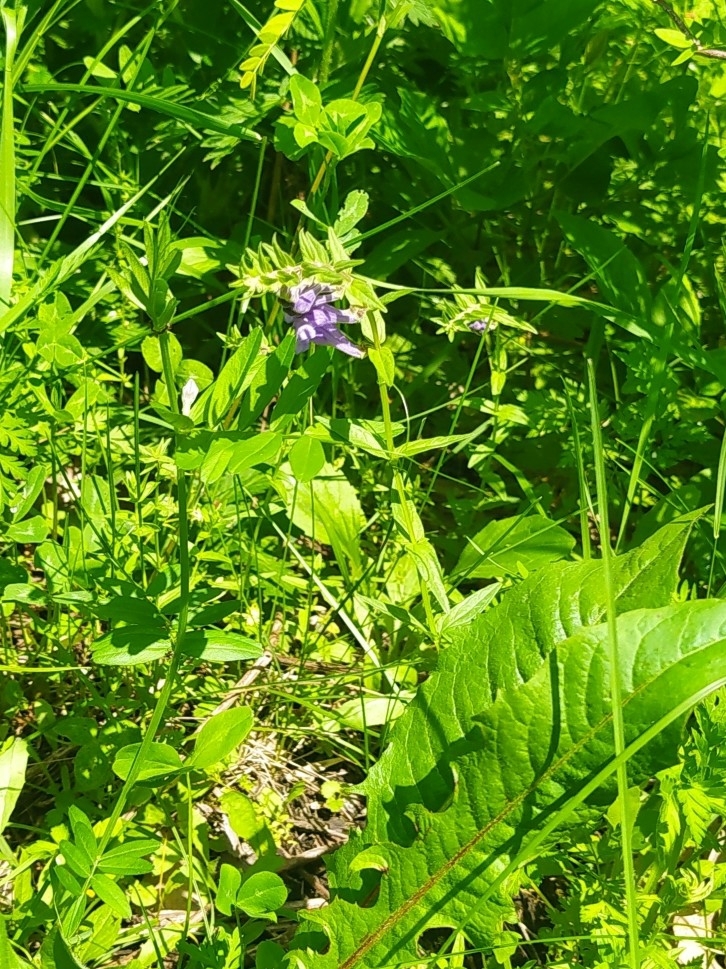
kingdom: Plantae
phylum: Tracheophyta
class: Magnoliopsida
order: Lamiales
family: Lamiaceae
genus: Scutellaria
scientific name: Scutellaria hastifolia
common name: Norfolk skullcap
